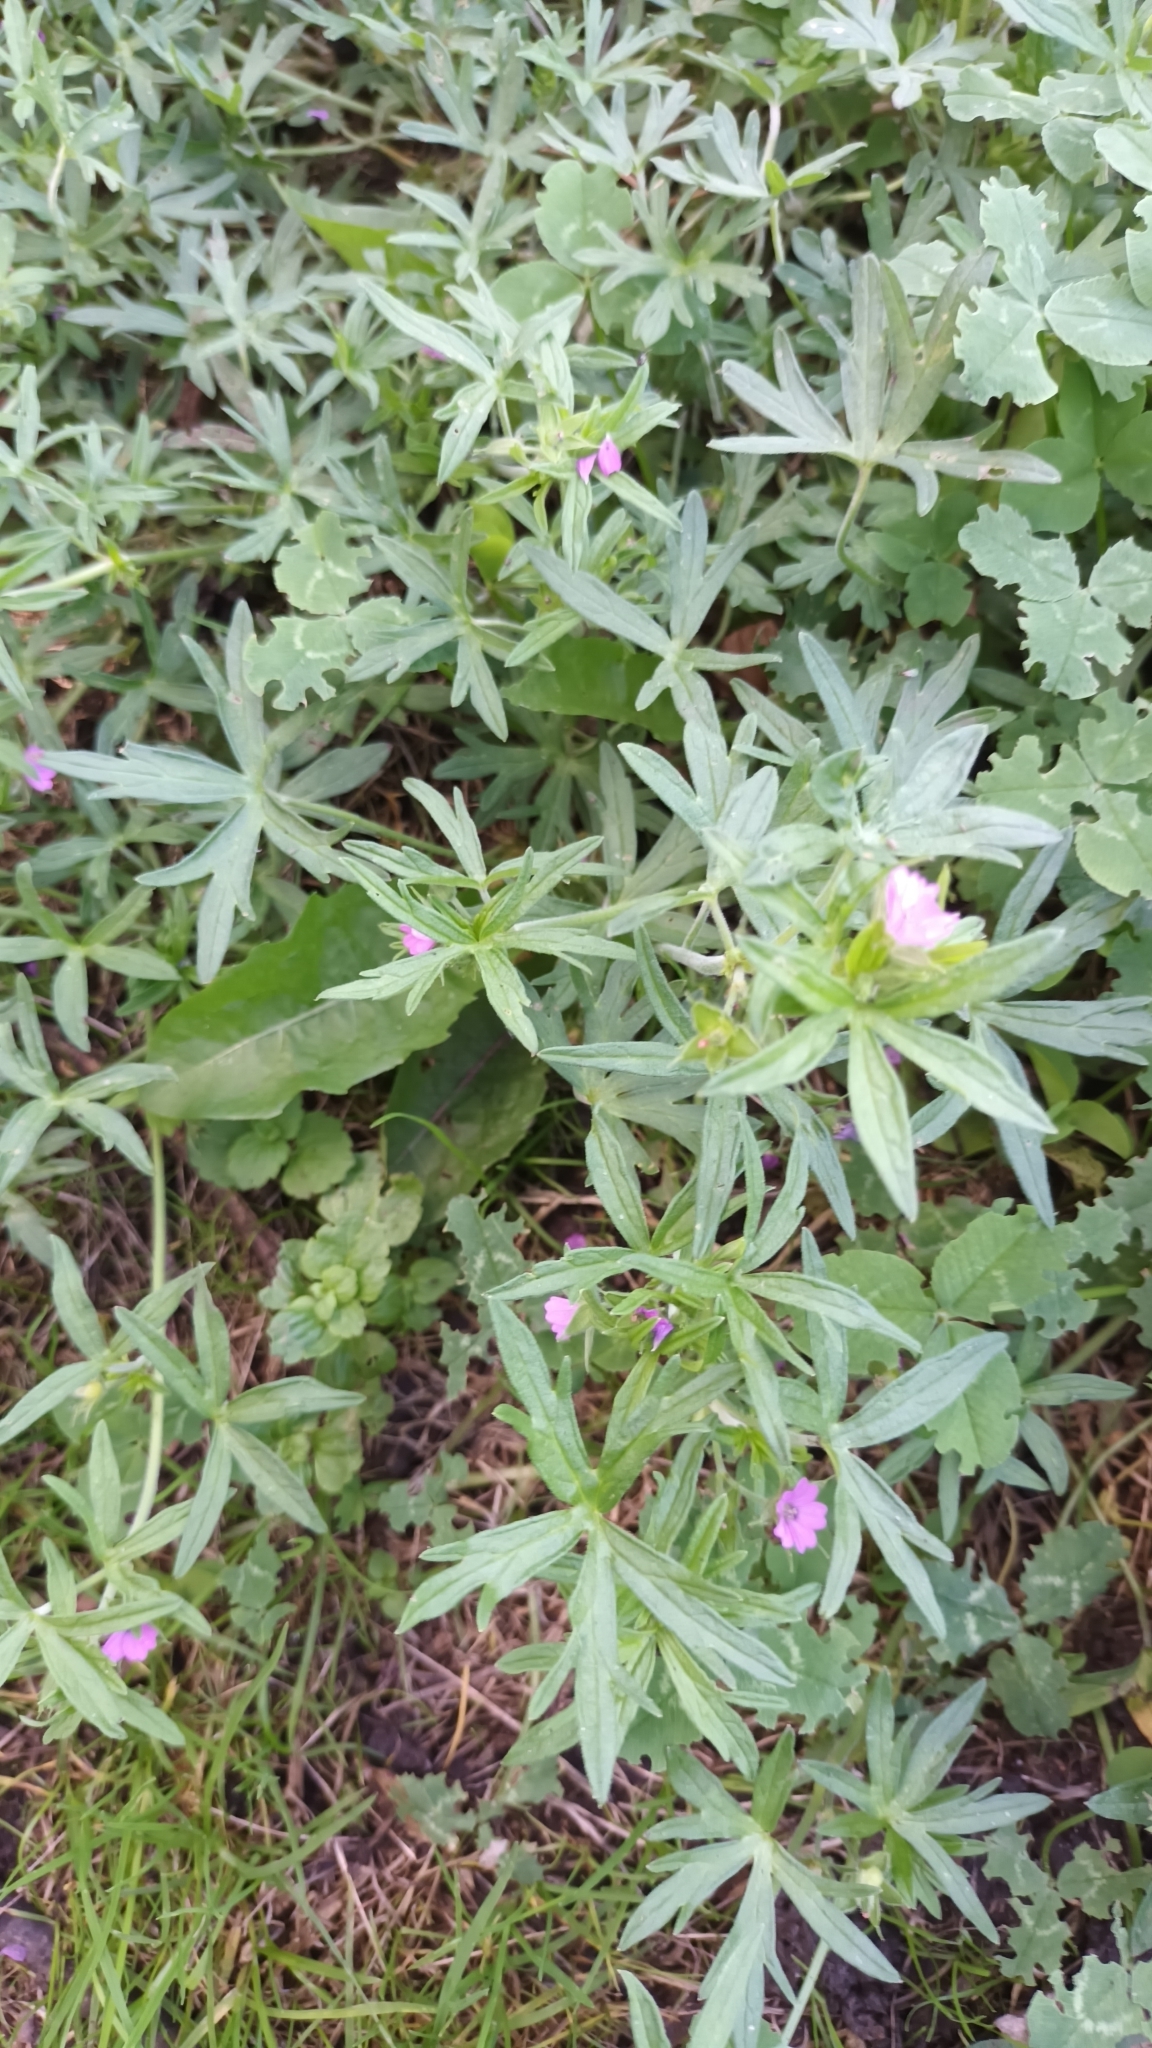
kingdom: Plantae
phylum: Tracheophyta
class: Magnoliopsida
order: Geraniales
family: Geraniaceae
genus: Geranium
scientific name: Geranium dissectum
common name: Cut-leaved crane's-bill
